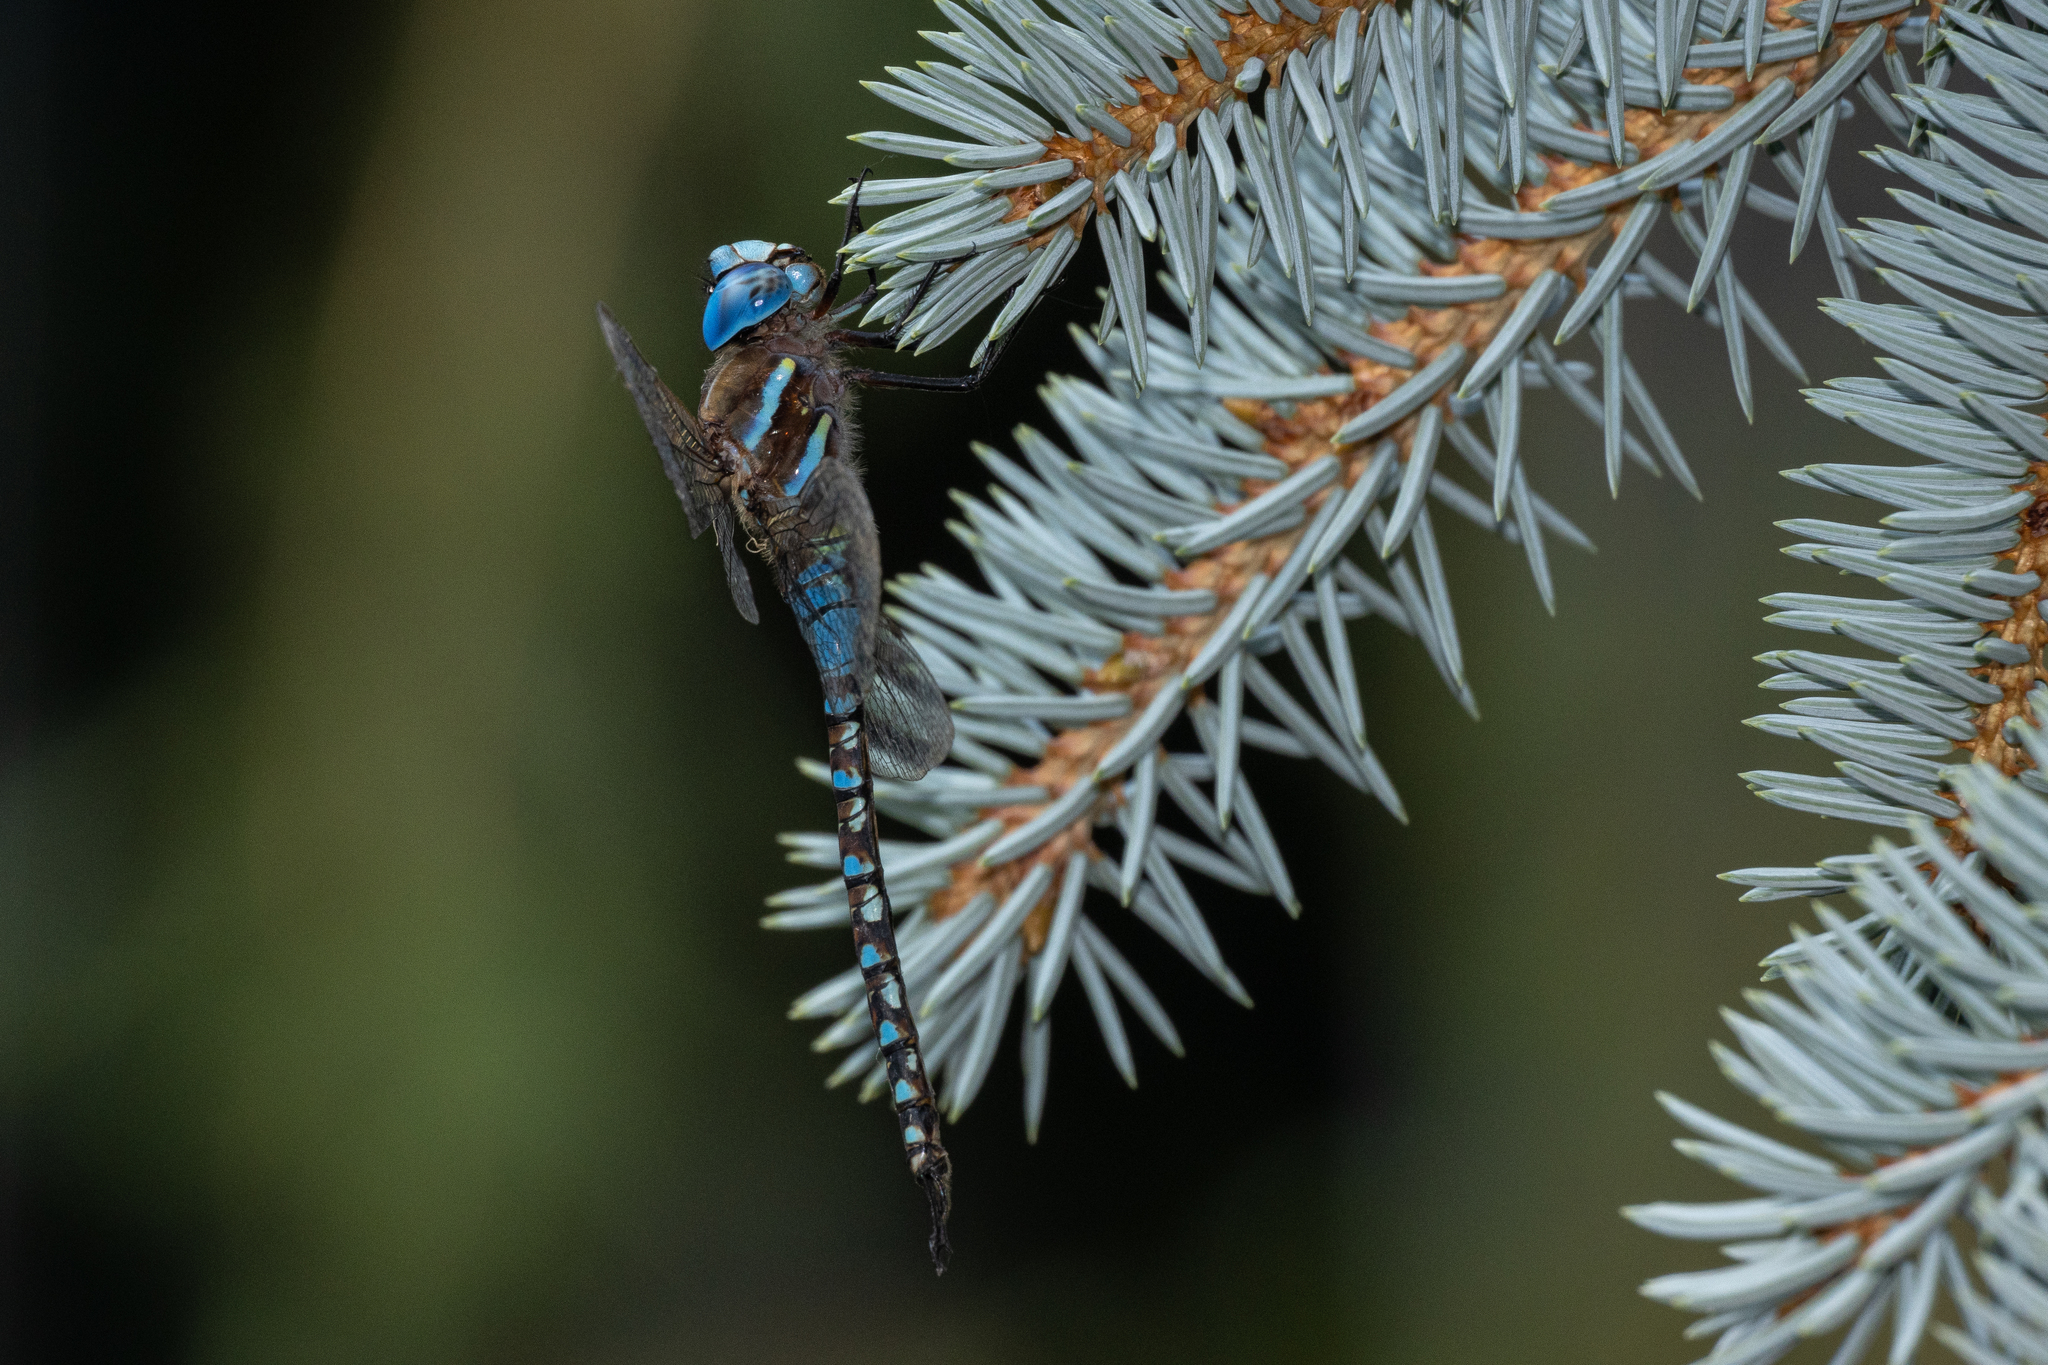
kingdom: Animalia
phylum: Arthropoda
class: Insecta
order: Odonata
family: Aeshnidae
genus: Rhionaeschna
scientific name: Rhionaeschna multicolor
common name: Blue-eyed darner
